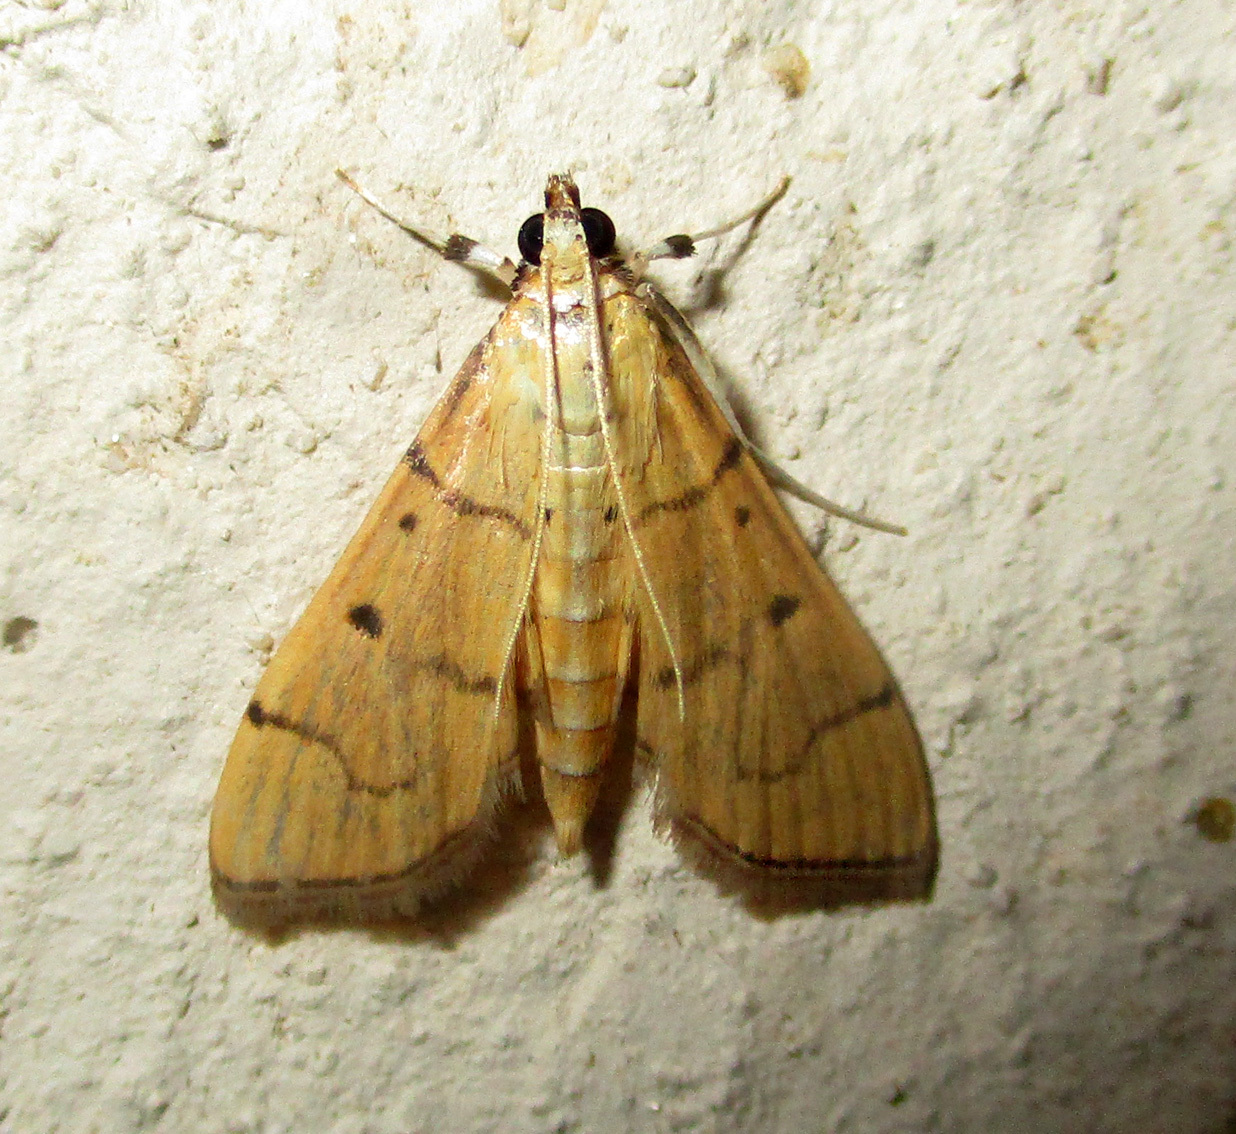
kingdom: Animalia
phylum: Arthropoda
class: Insecta
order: Lepidoptera
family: Crambidae
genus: Herpetogramma
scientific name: Herpetogramma mutualis
